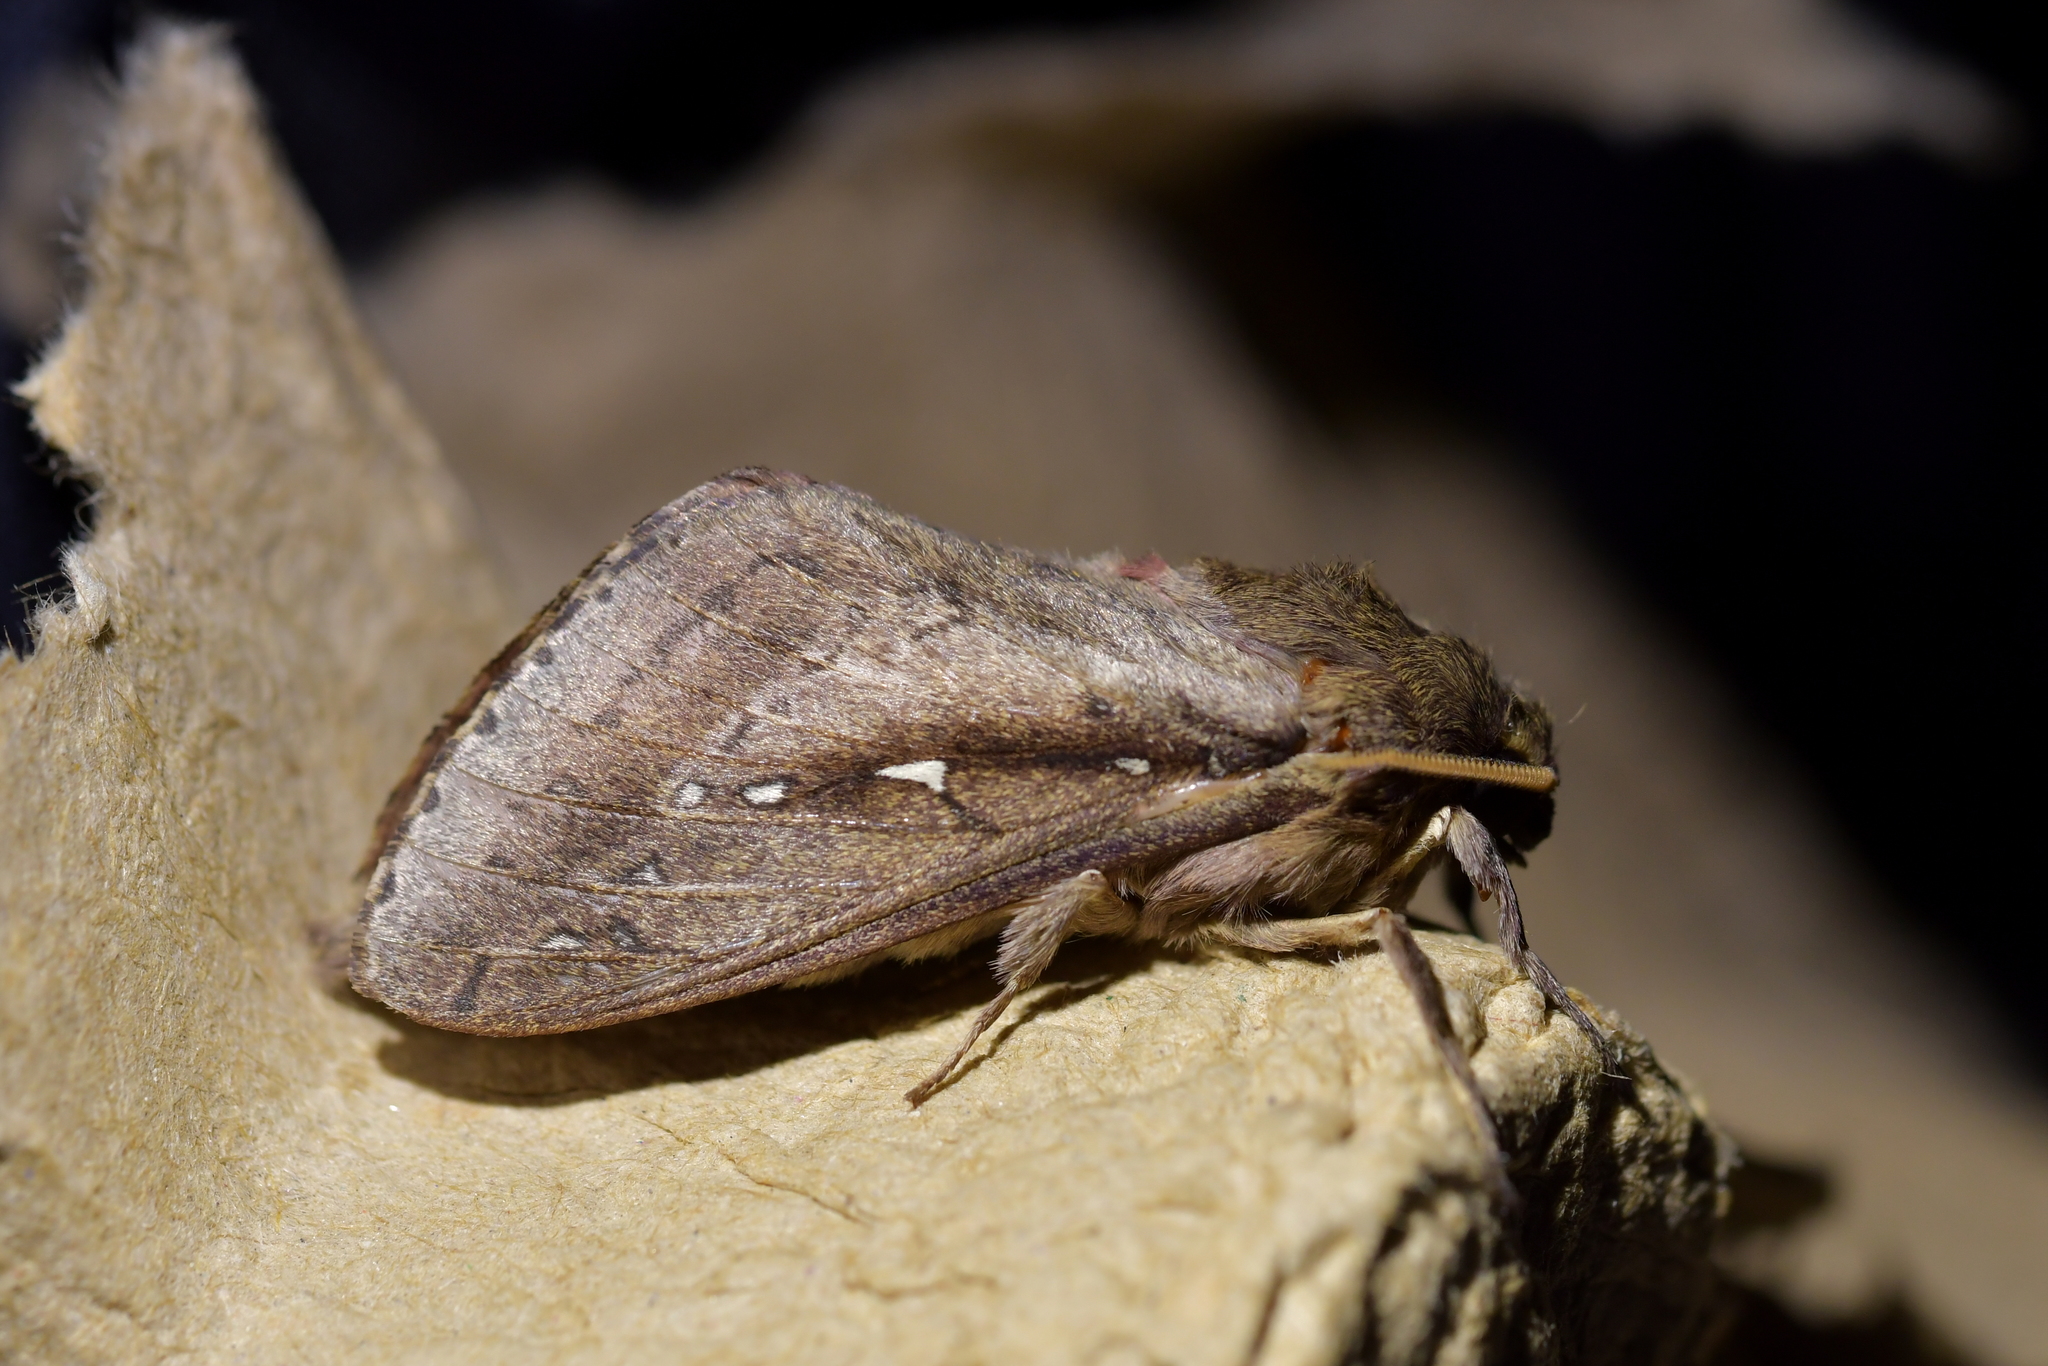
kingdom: Animalia
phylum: Arthropoda
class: Insecta
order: Lepidoptera
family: Hepialidae
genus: Wiseana
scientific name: Wiseana signata
